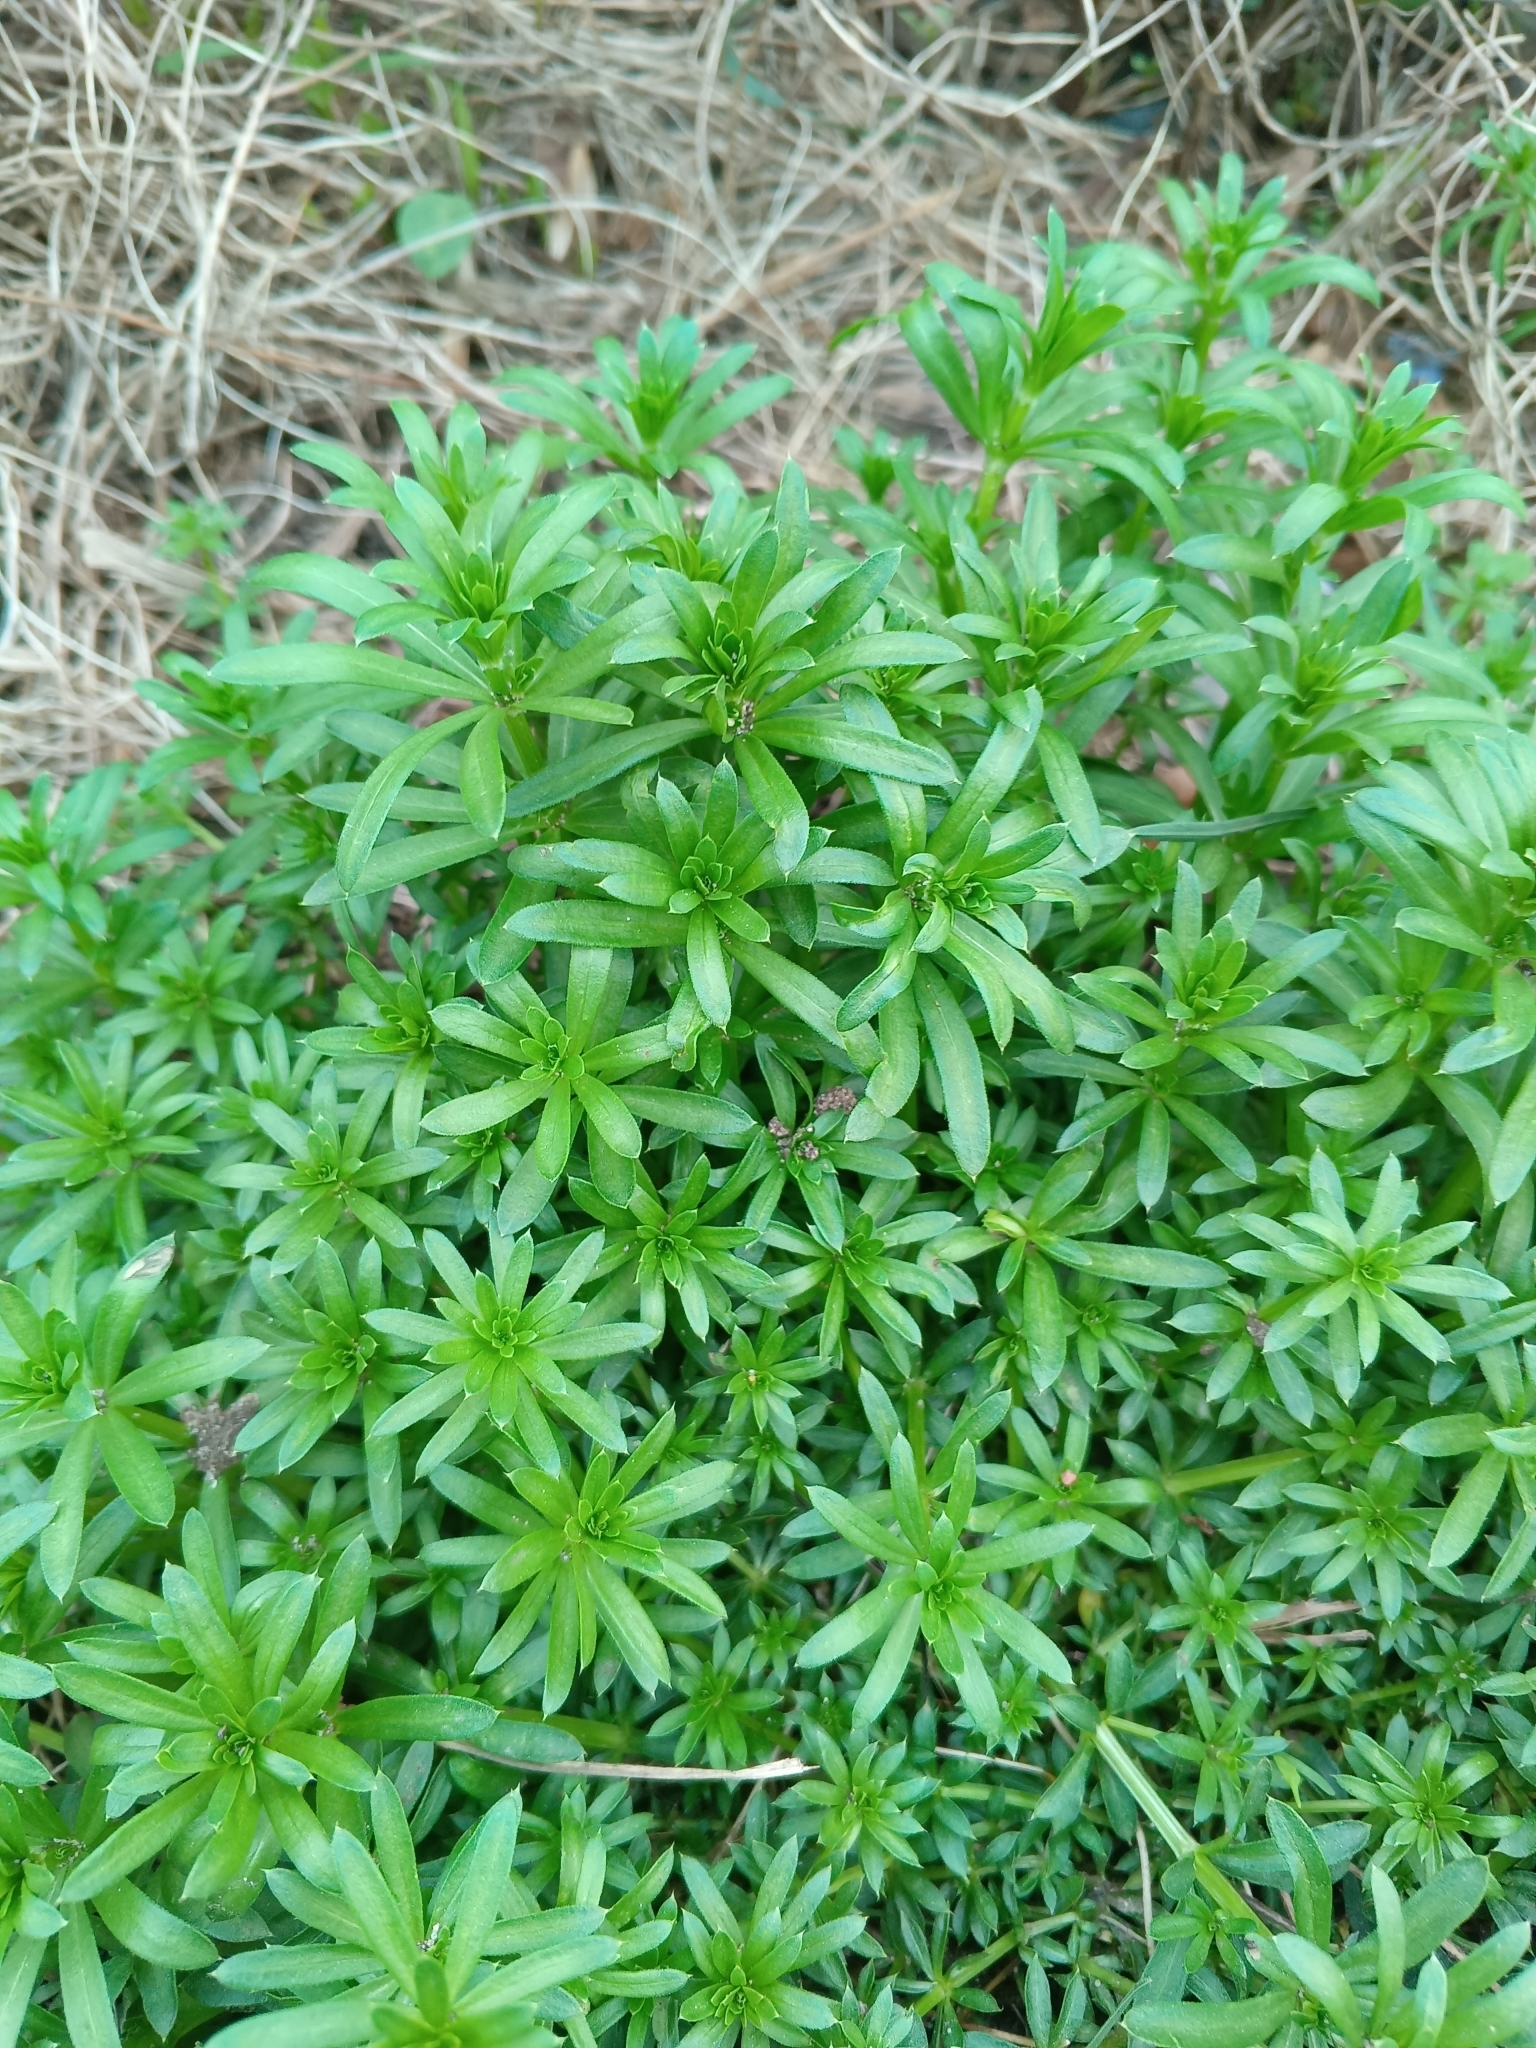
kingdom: Plantae
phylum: Tracheophyta
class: Magnoliopsida
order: Gentianales
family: Rubiaceae
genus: Galium
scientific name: Galium mollugo
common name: Hedge bedstraw
